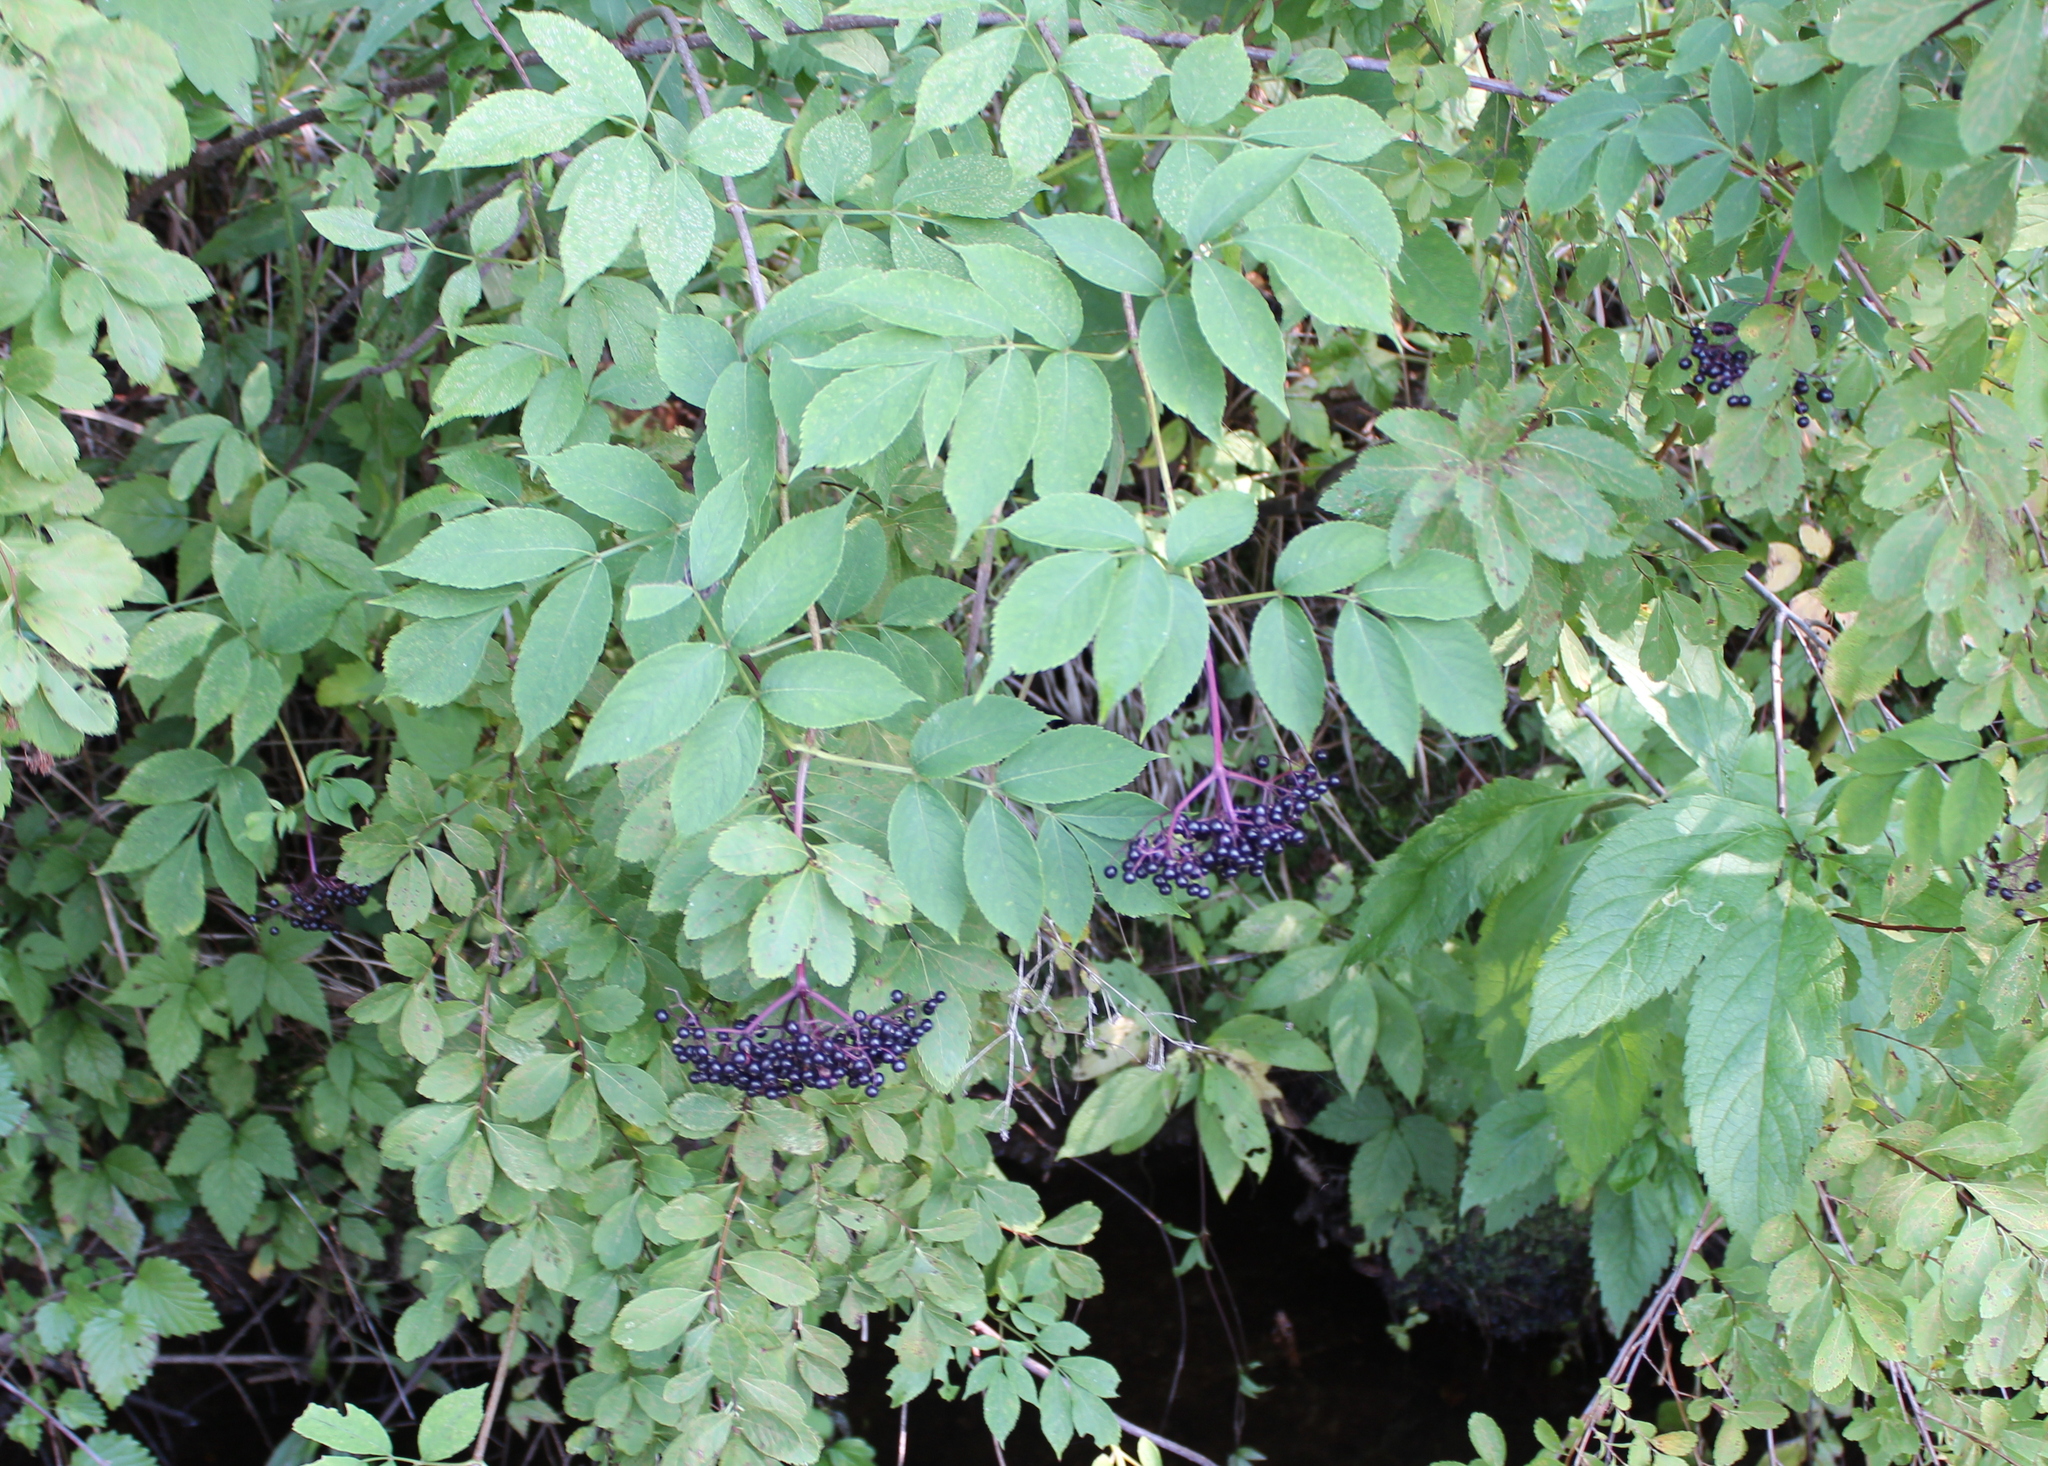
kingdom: Plantae
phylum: Tracheophyta
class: Magnoliopsida
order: Dipsacales
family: Viburnaceae
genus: Sambucus
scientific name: Sambucus canadensis
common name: American elder
